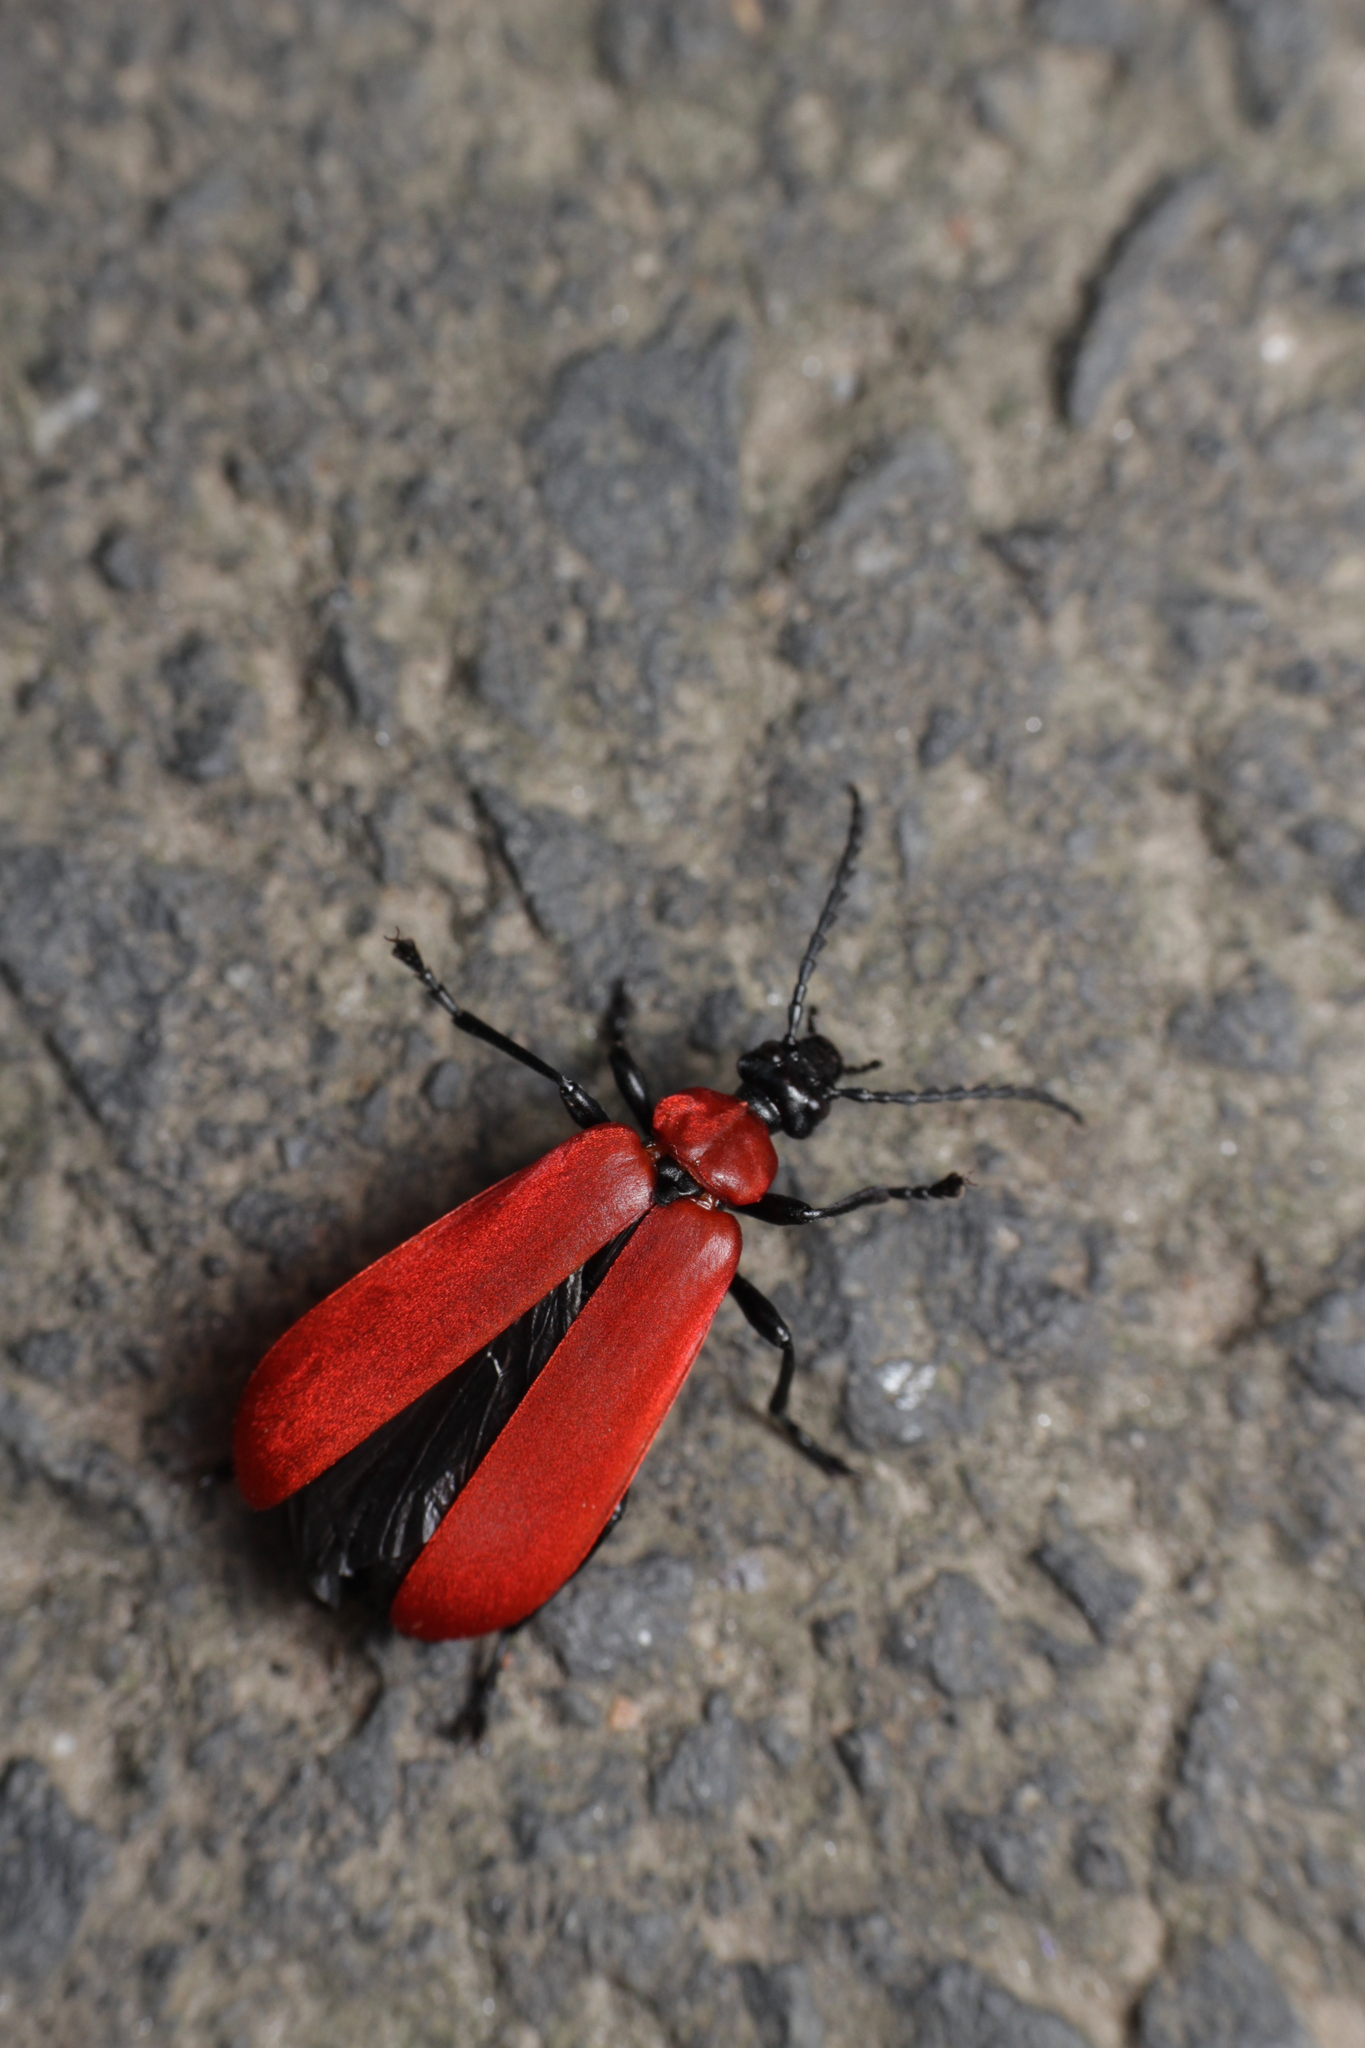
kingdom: Animalia
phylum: Arthropoda
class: Insecta
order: Coleoptera
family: Pyrochroidae
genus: Pyrochroa
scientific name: Pyrochroa coccinea
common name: Black-headed cardinal beetle
